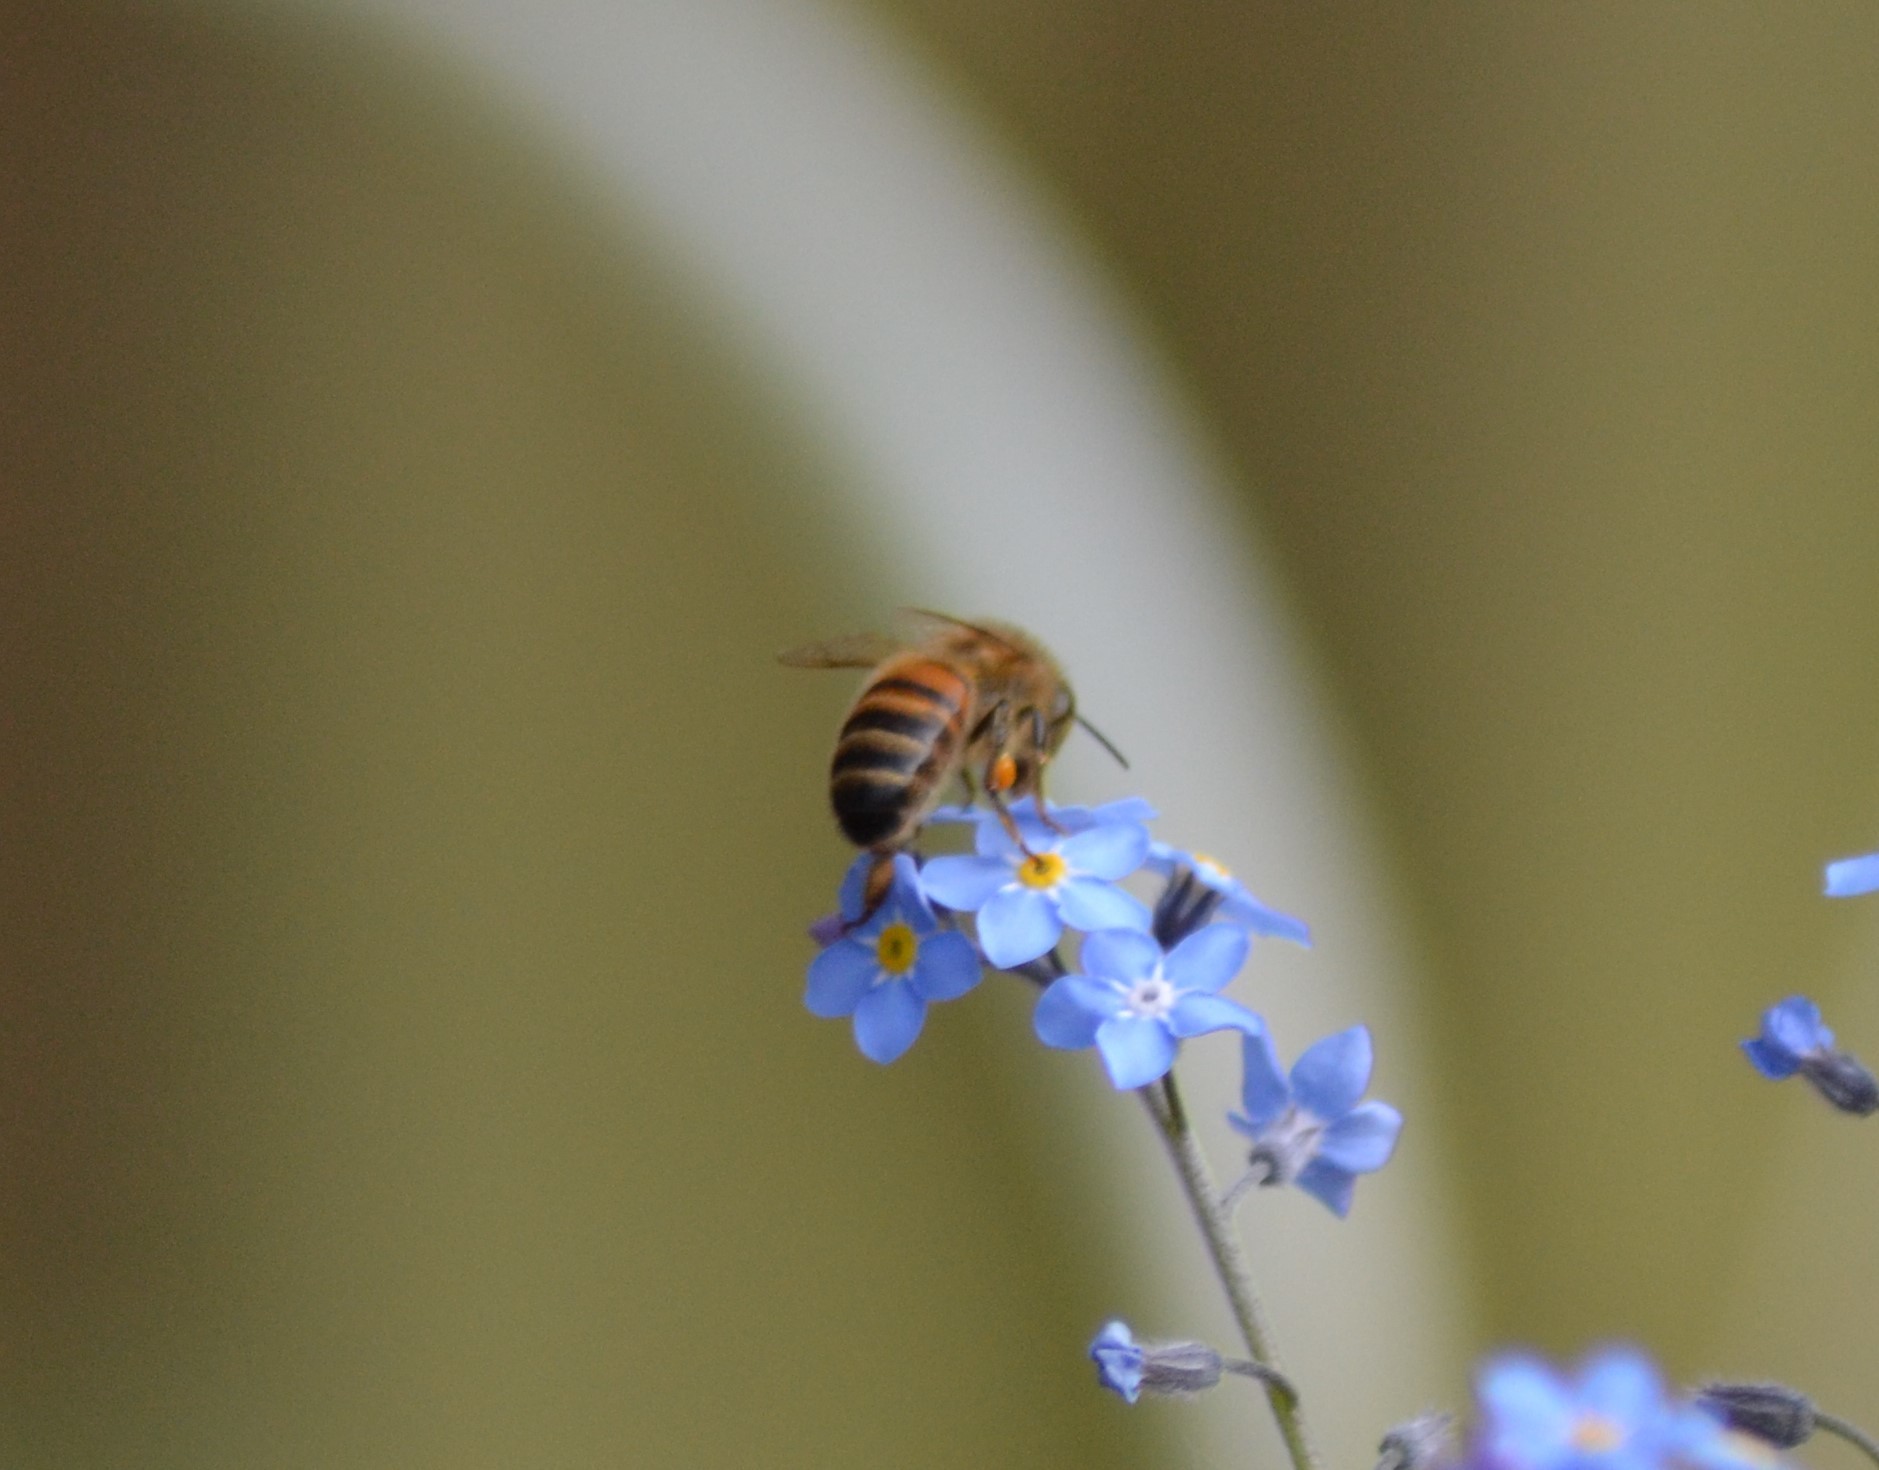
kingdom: Animalia
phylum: Arthropoda
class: Insecta
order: Hymenoptera
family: Apidae
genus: Apis
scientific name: Apis mellifera
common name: Honey bee
